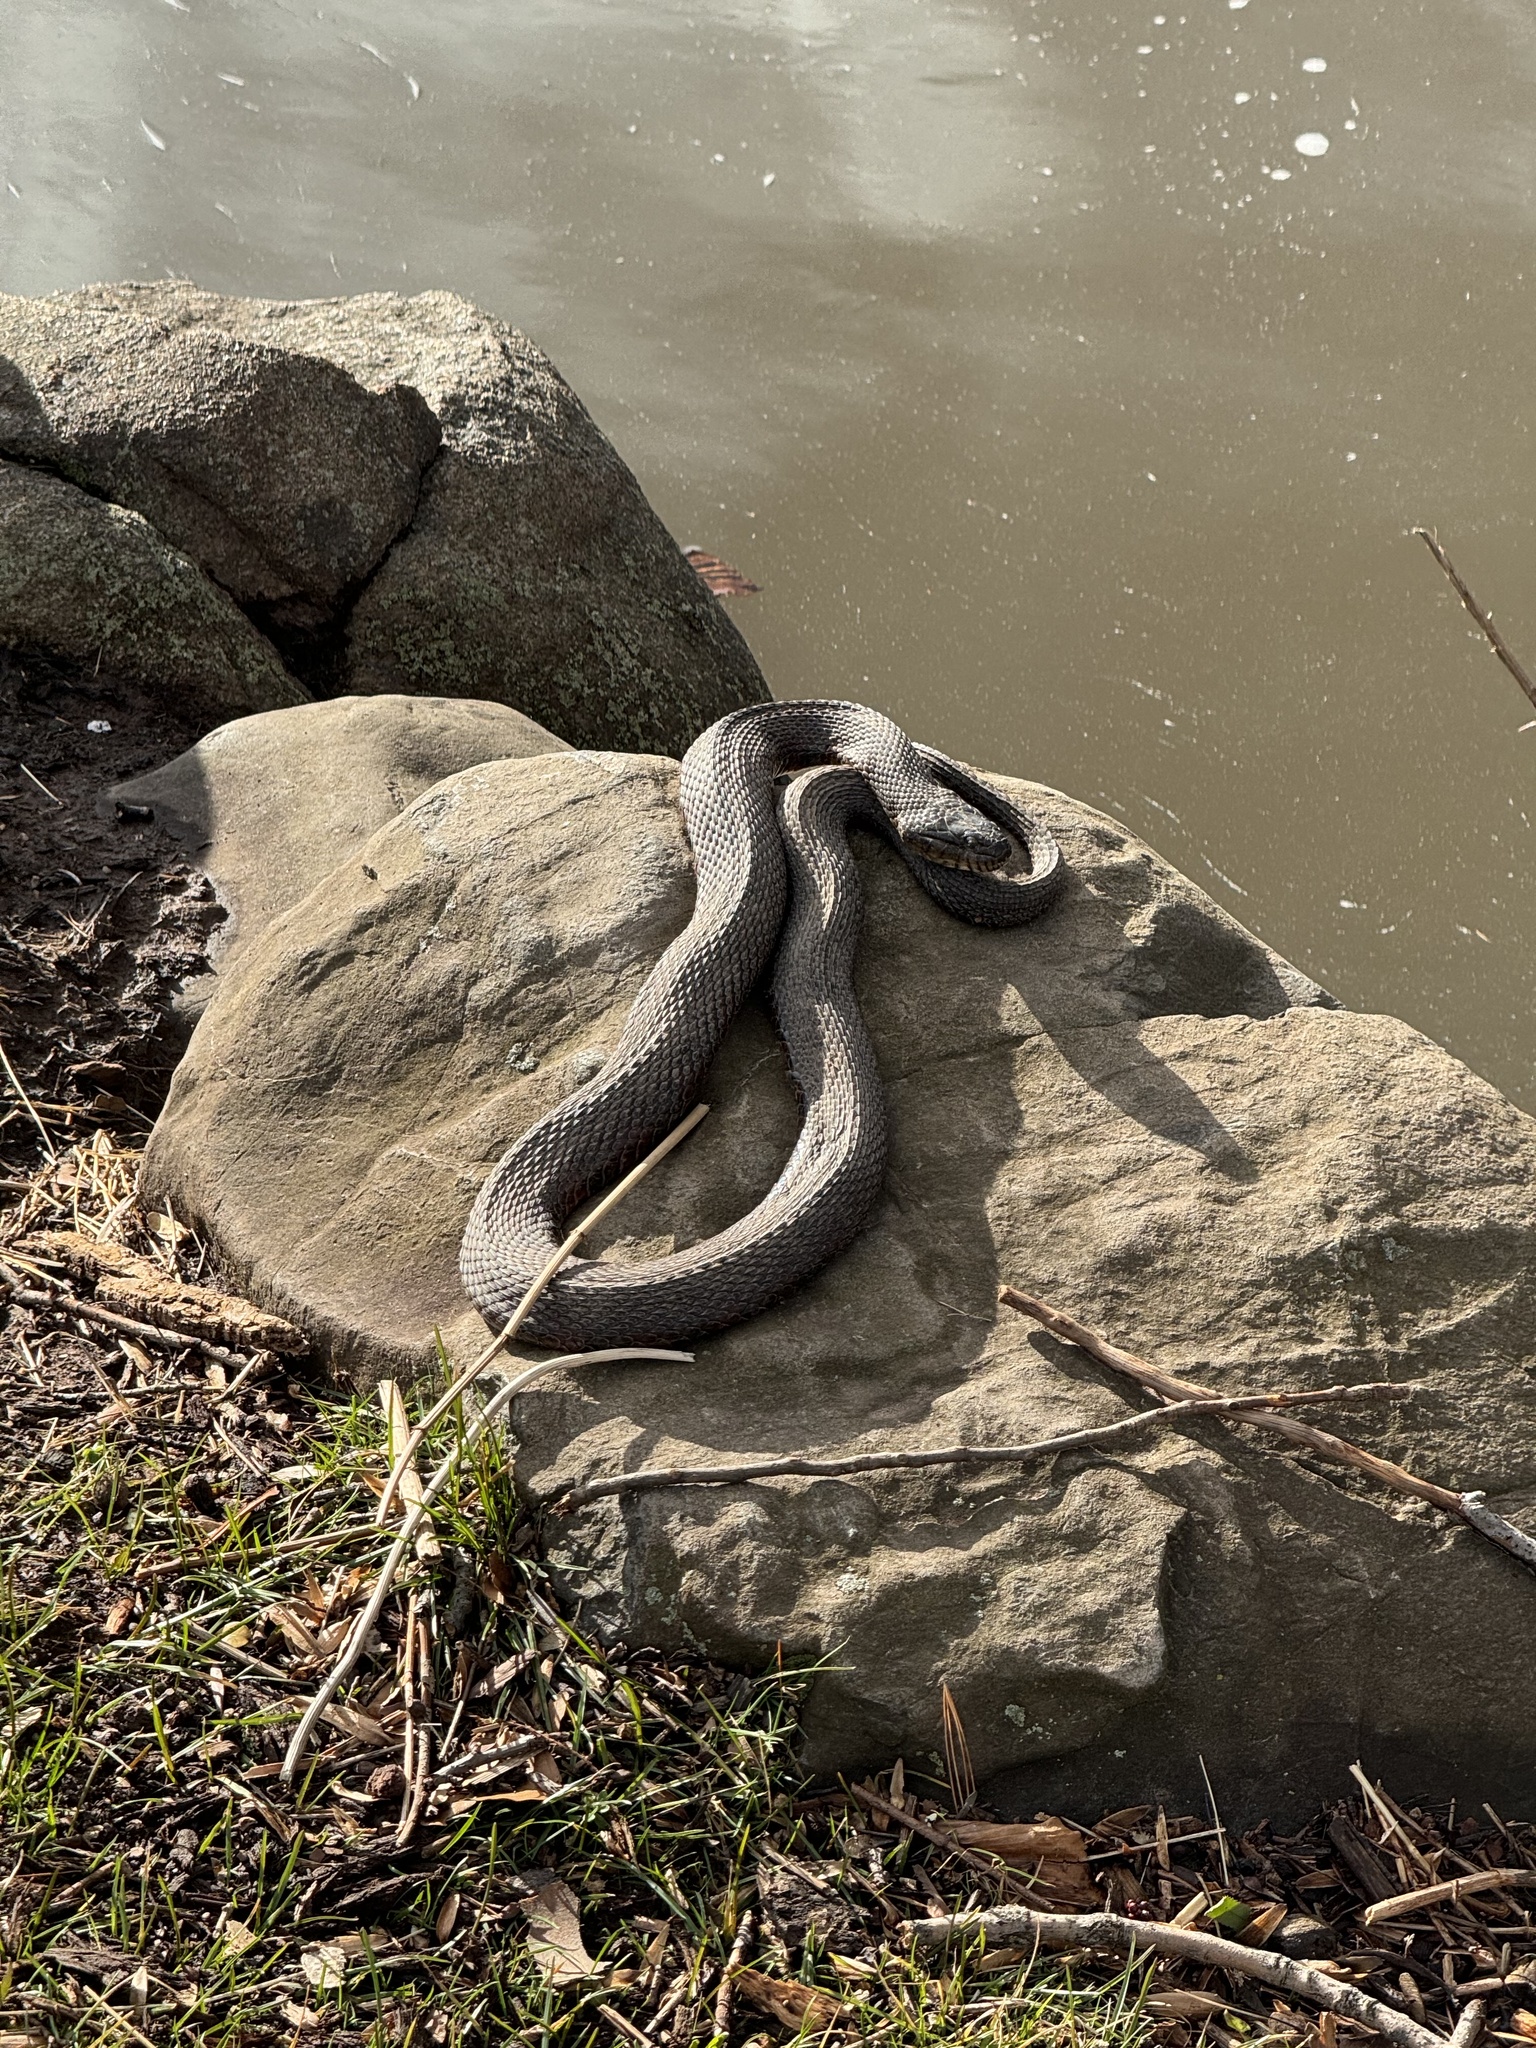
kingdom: Animalia
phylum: Chordata
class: Squamata
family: Colubridae
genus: Nerodia
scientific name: Nerodia sipedon
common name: Northern water snake
